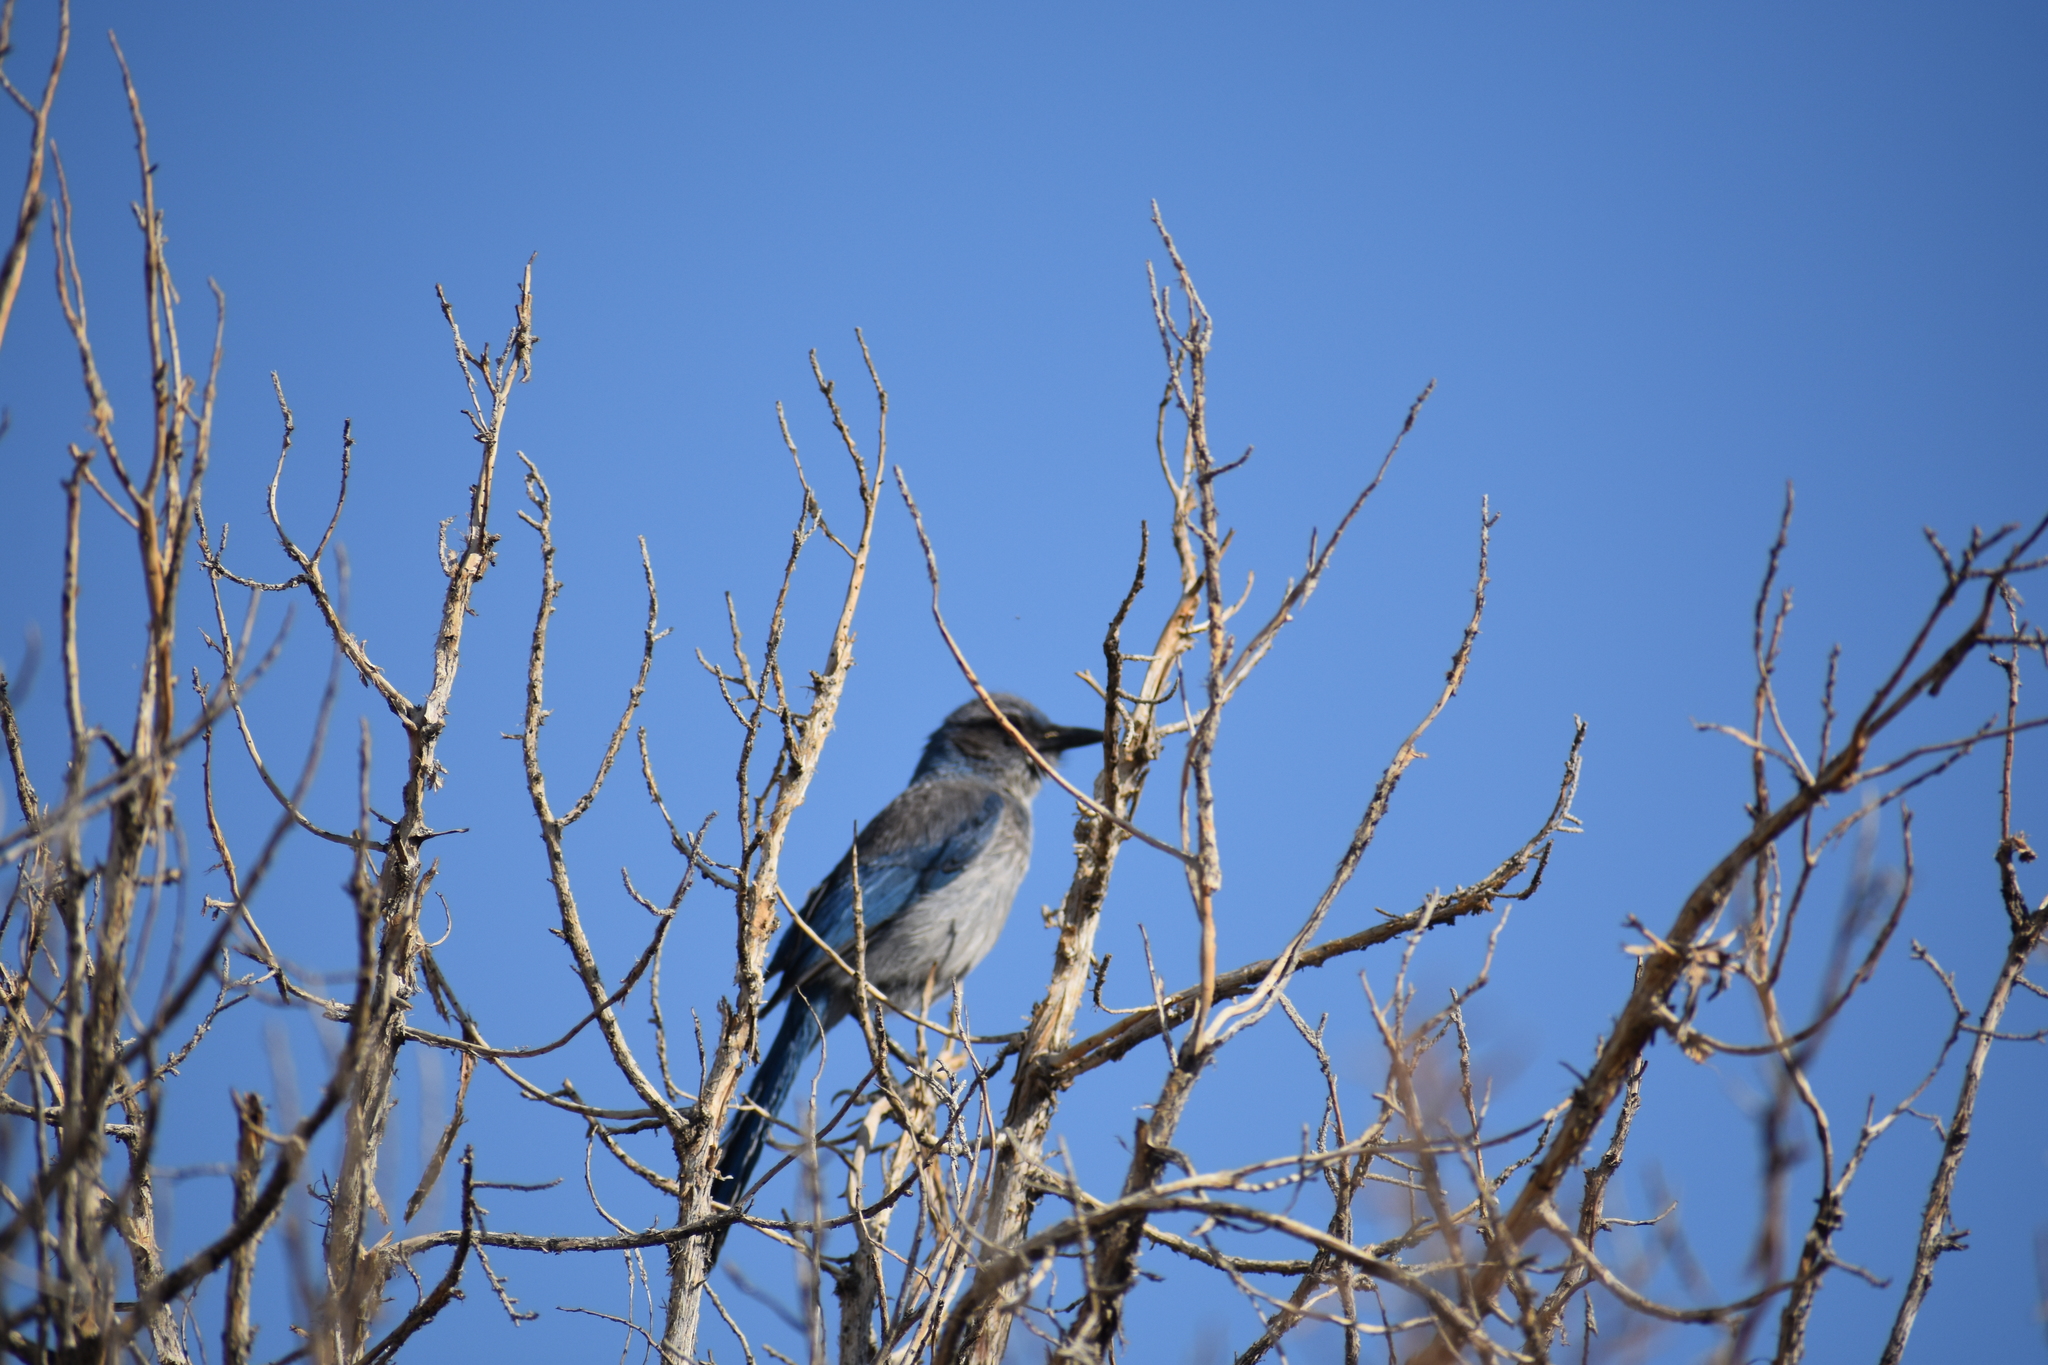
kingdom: Animalia
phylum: Chordata
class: Aves
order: Passeriformes
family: Corvidae
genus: Aphelocoma
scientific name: Aphelocoma woodhouseii
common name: Woodhouse's scrub-jay
